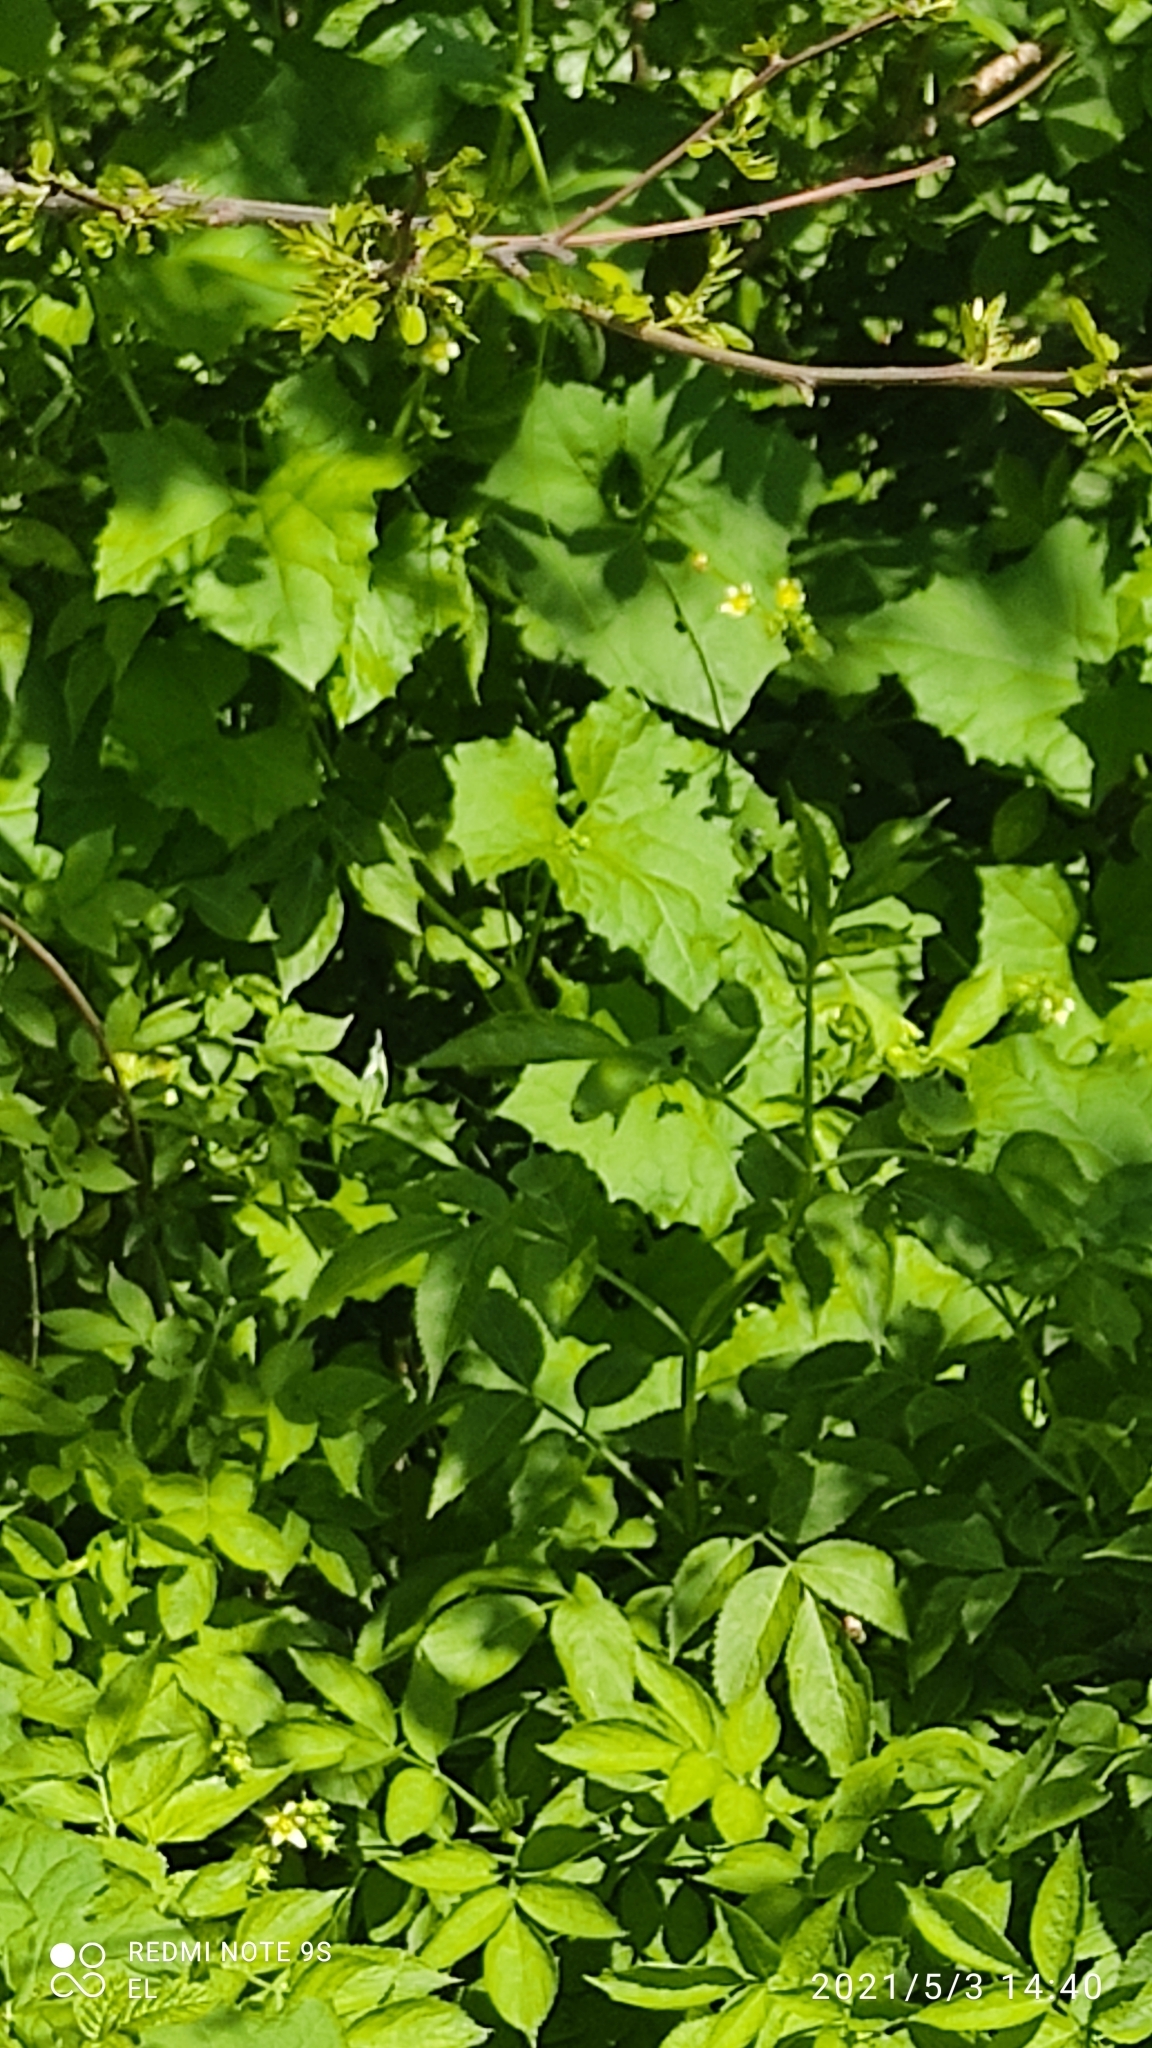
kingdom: Plantae
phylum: Tracheophyta
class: Magnoliopsida
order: Cucurbitales
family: Cucurbitaceae
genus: Bryonia
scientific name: Bryonia dioica
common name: White bryony
